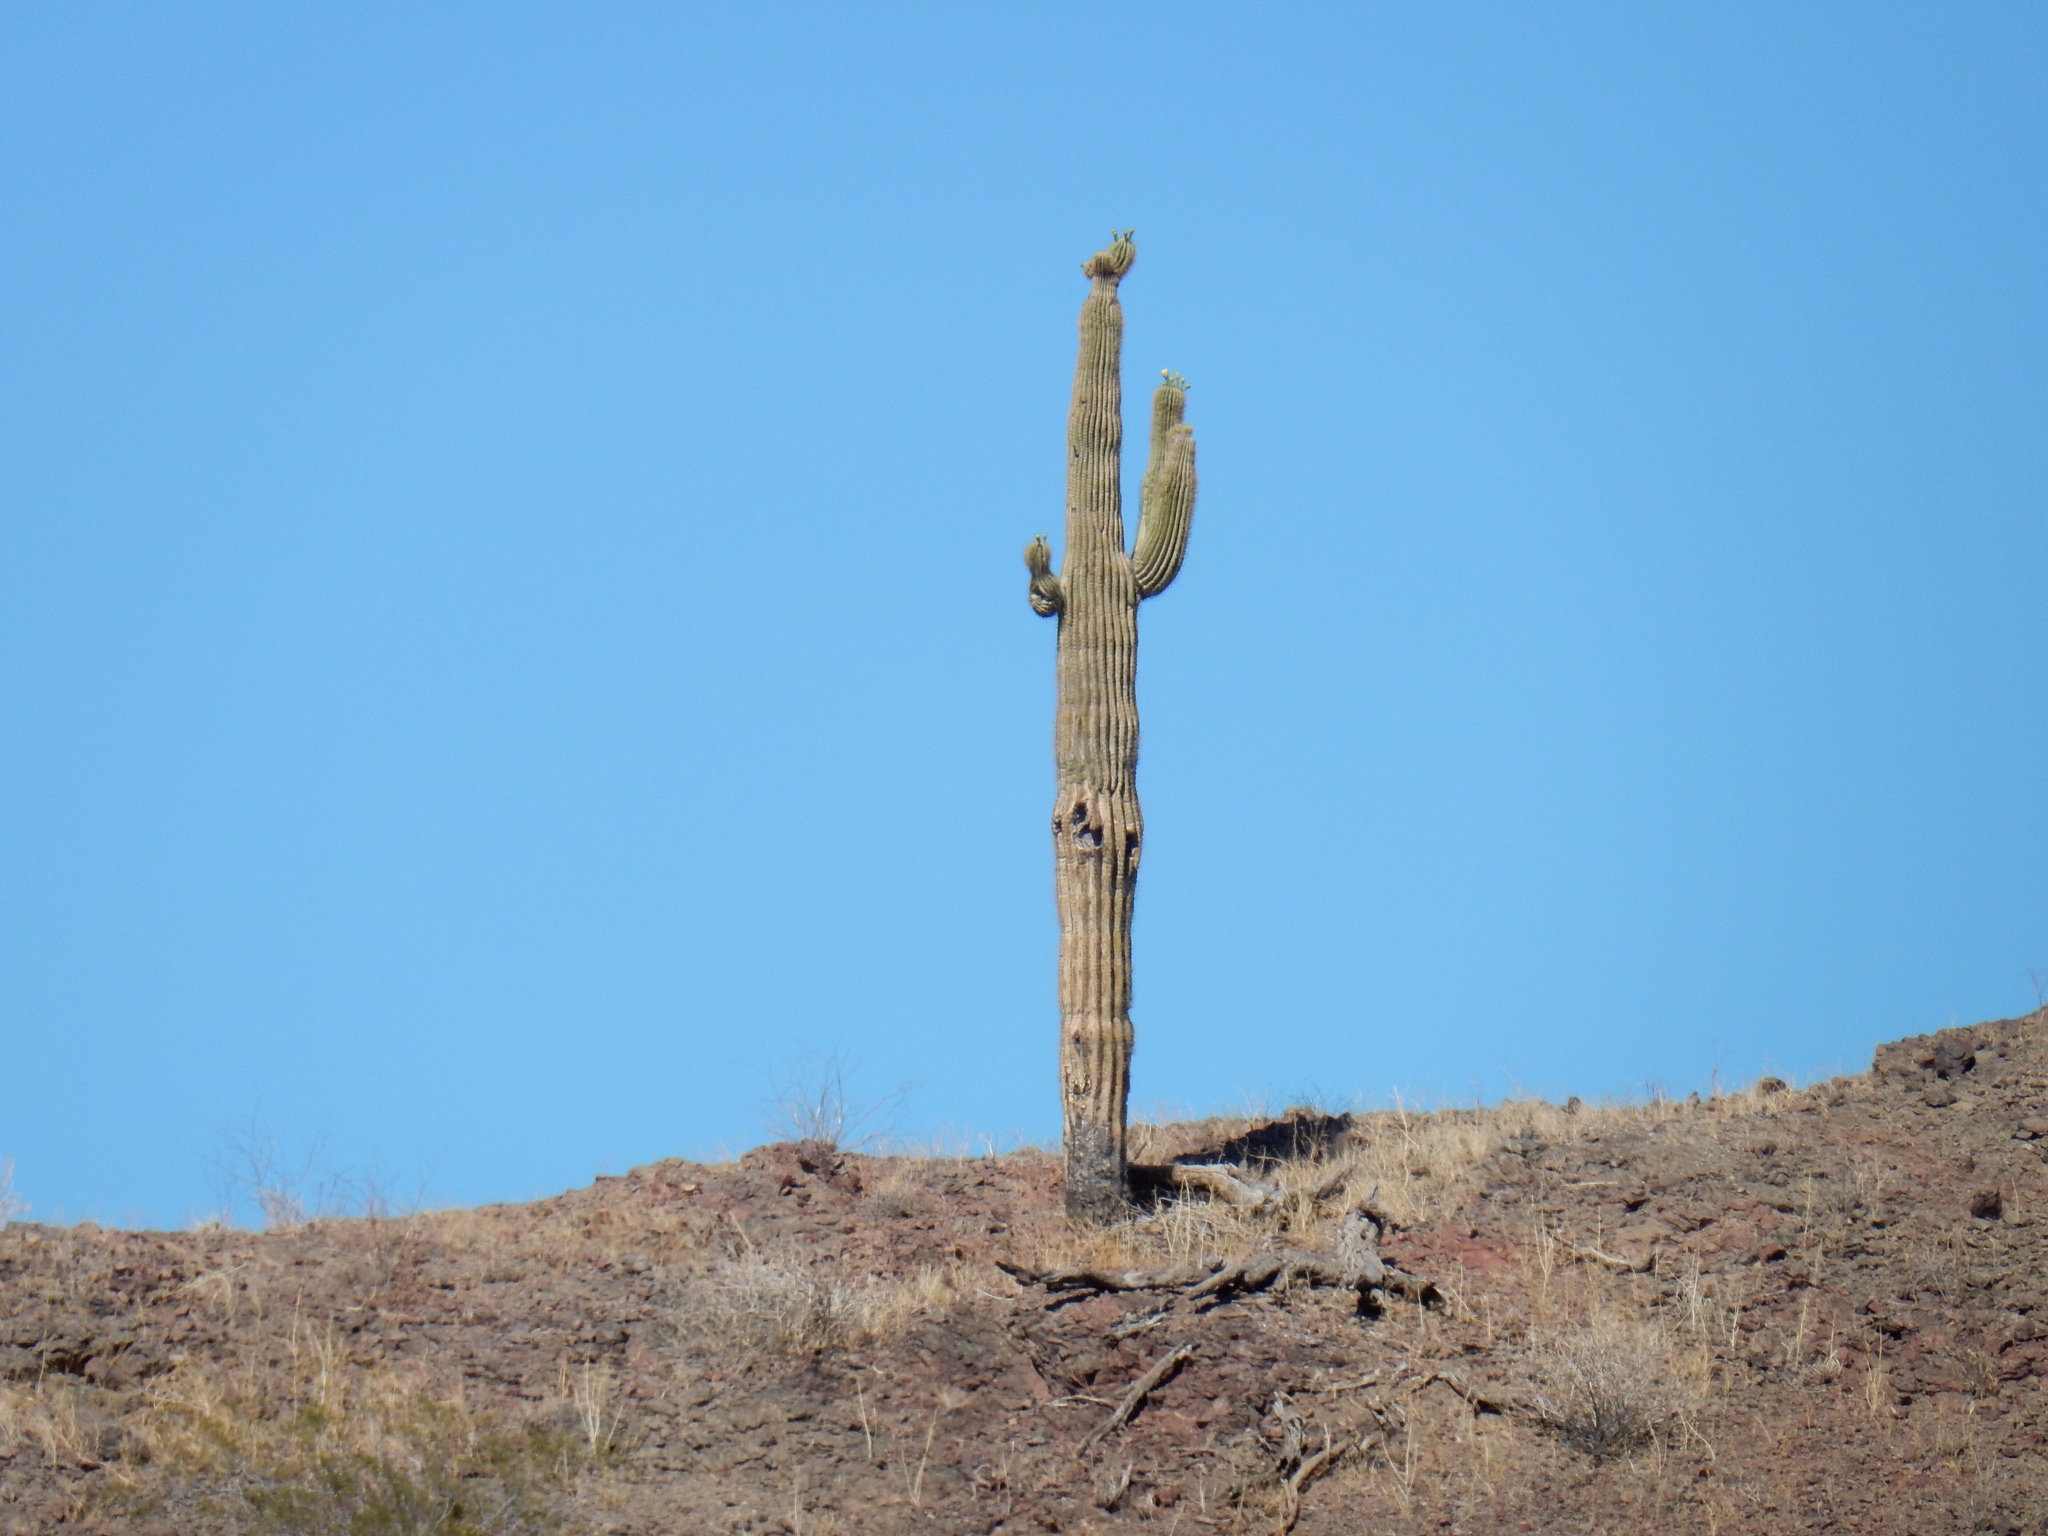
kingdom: Plantae
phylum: Tracheophyta
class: Magnoliopsida
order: Caryophyllales
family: Cactaceae
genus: Carnegiea
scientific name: Carnegiea gigantea
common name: Saguaro
